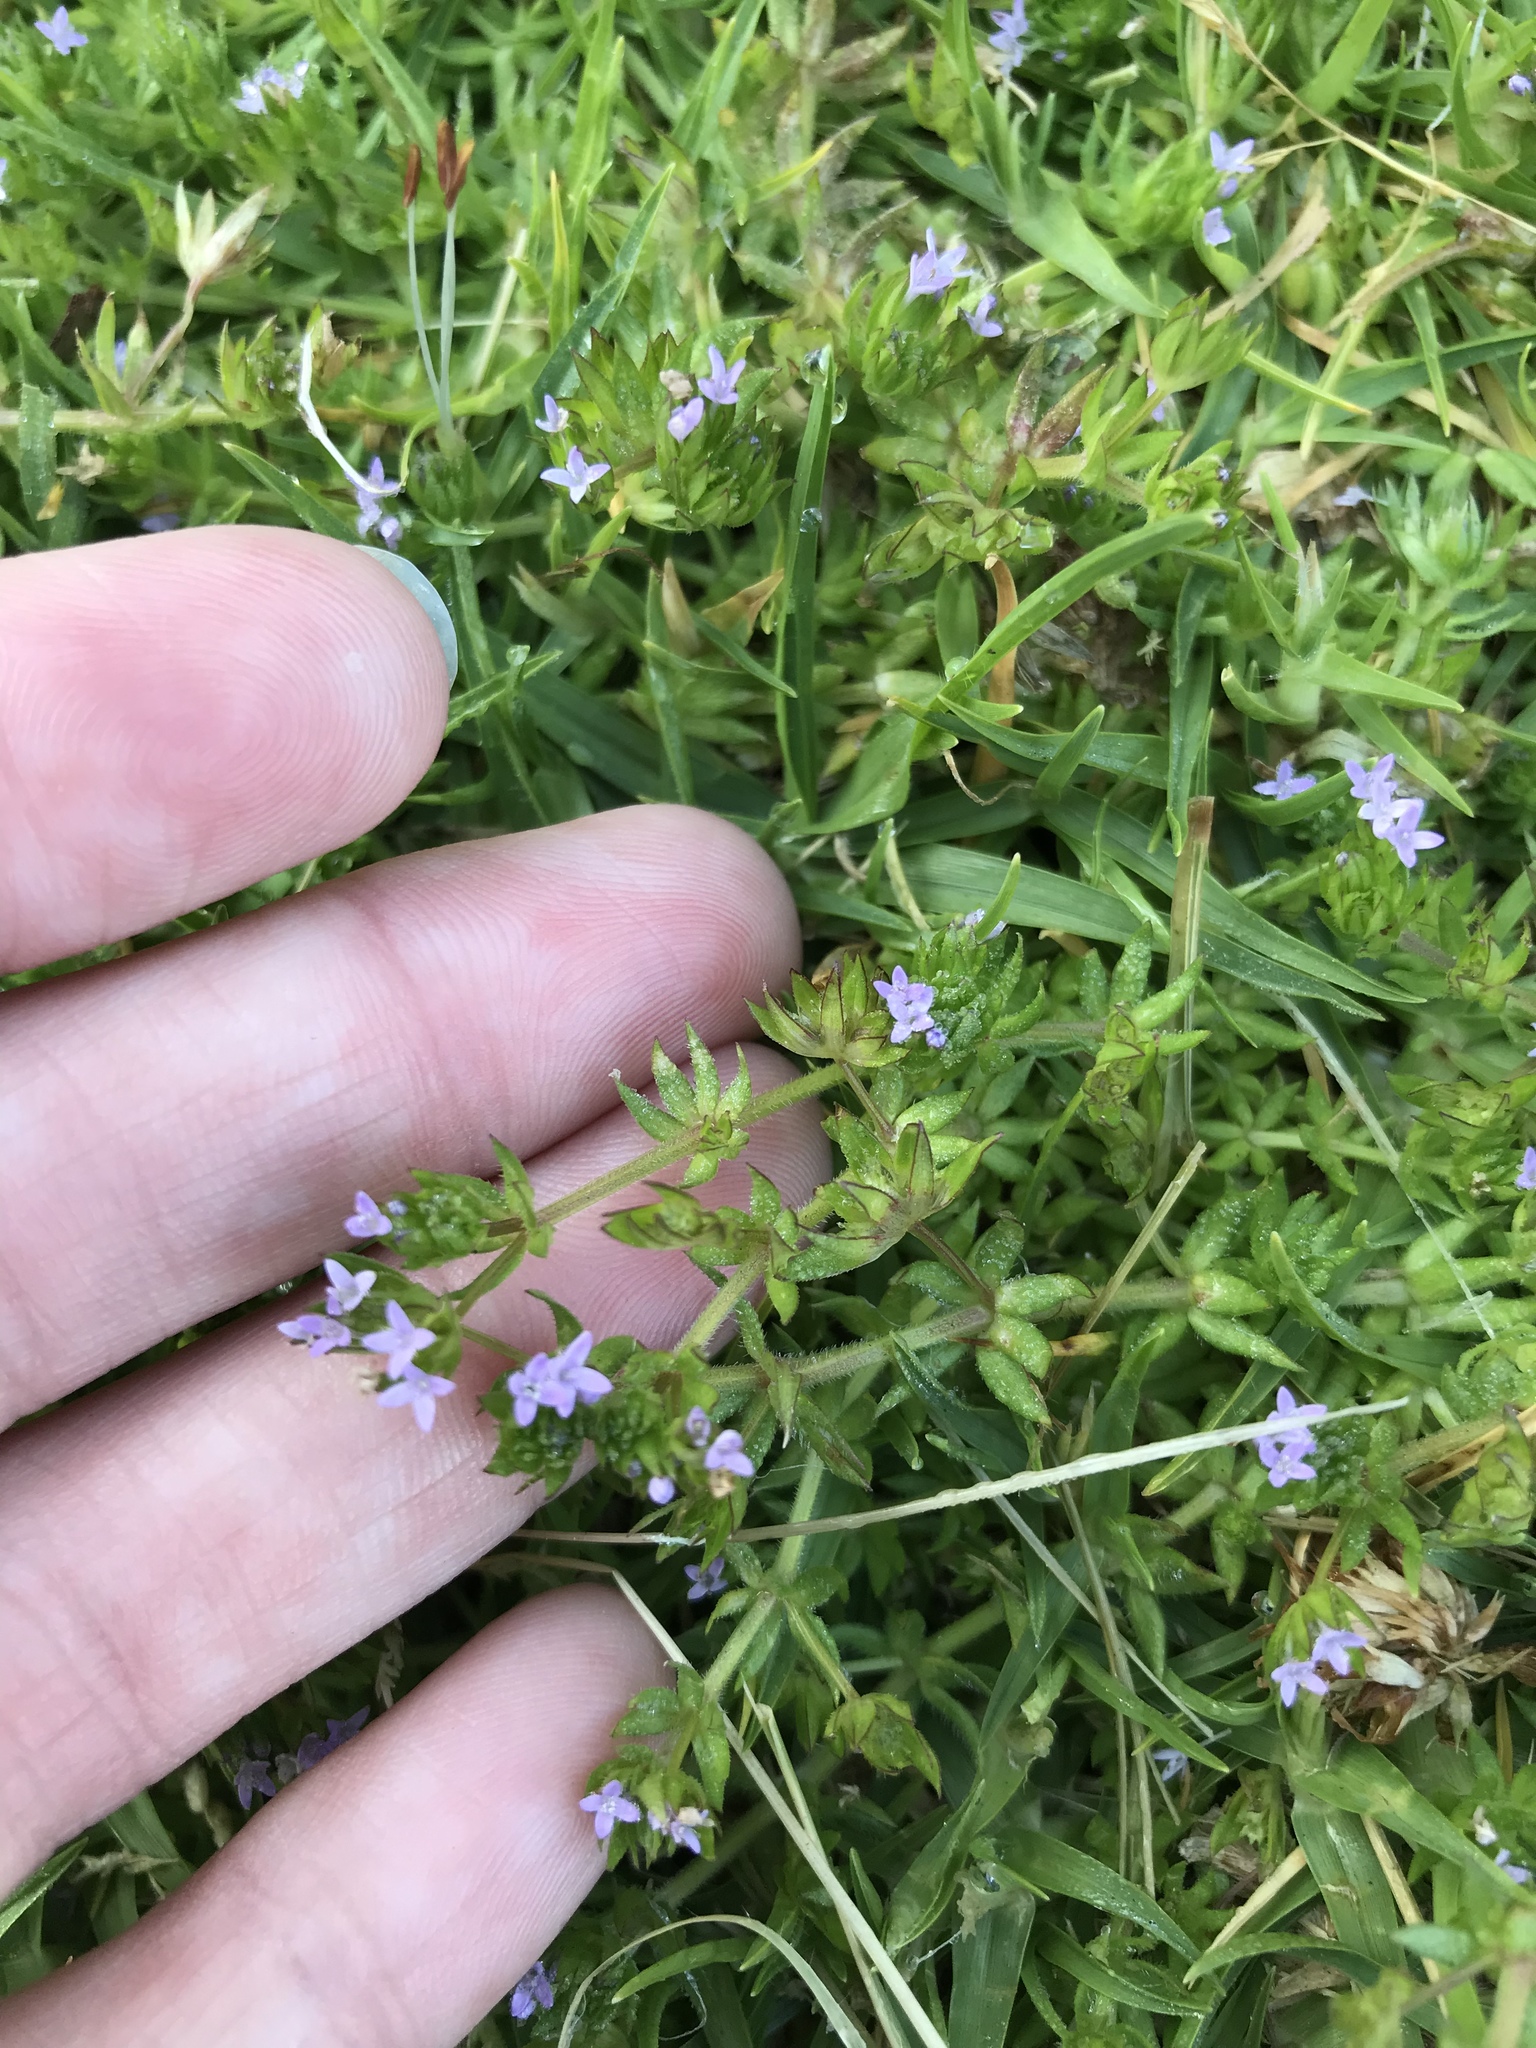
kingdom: Plantae
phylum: Tracheophyta
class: Magnoliopsida
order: Gentianales
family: Rubiaceae
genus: Sherardia
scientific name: Sherardia arvensis
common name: Field madder
